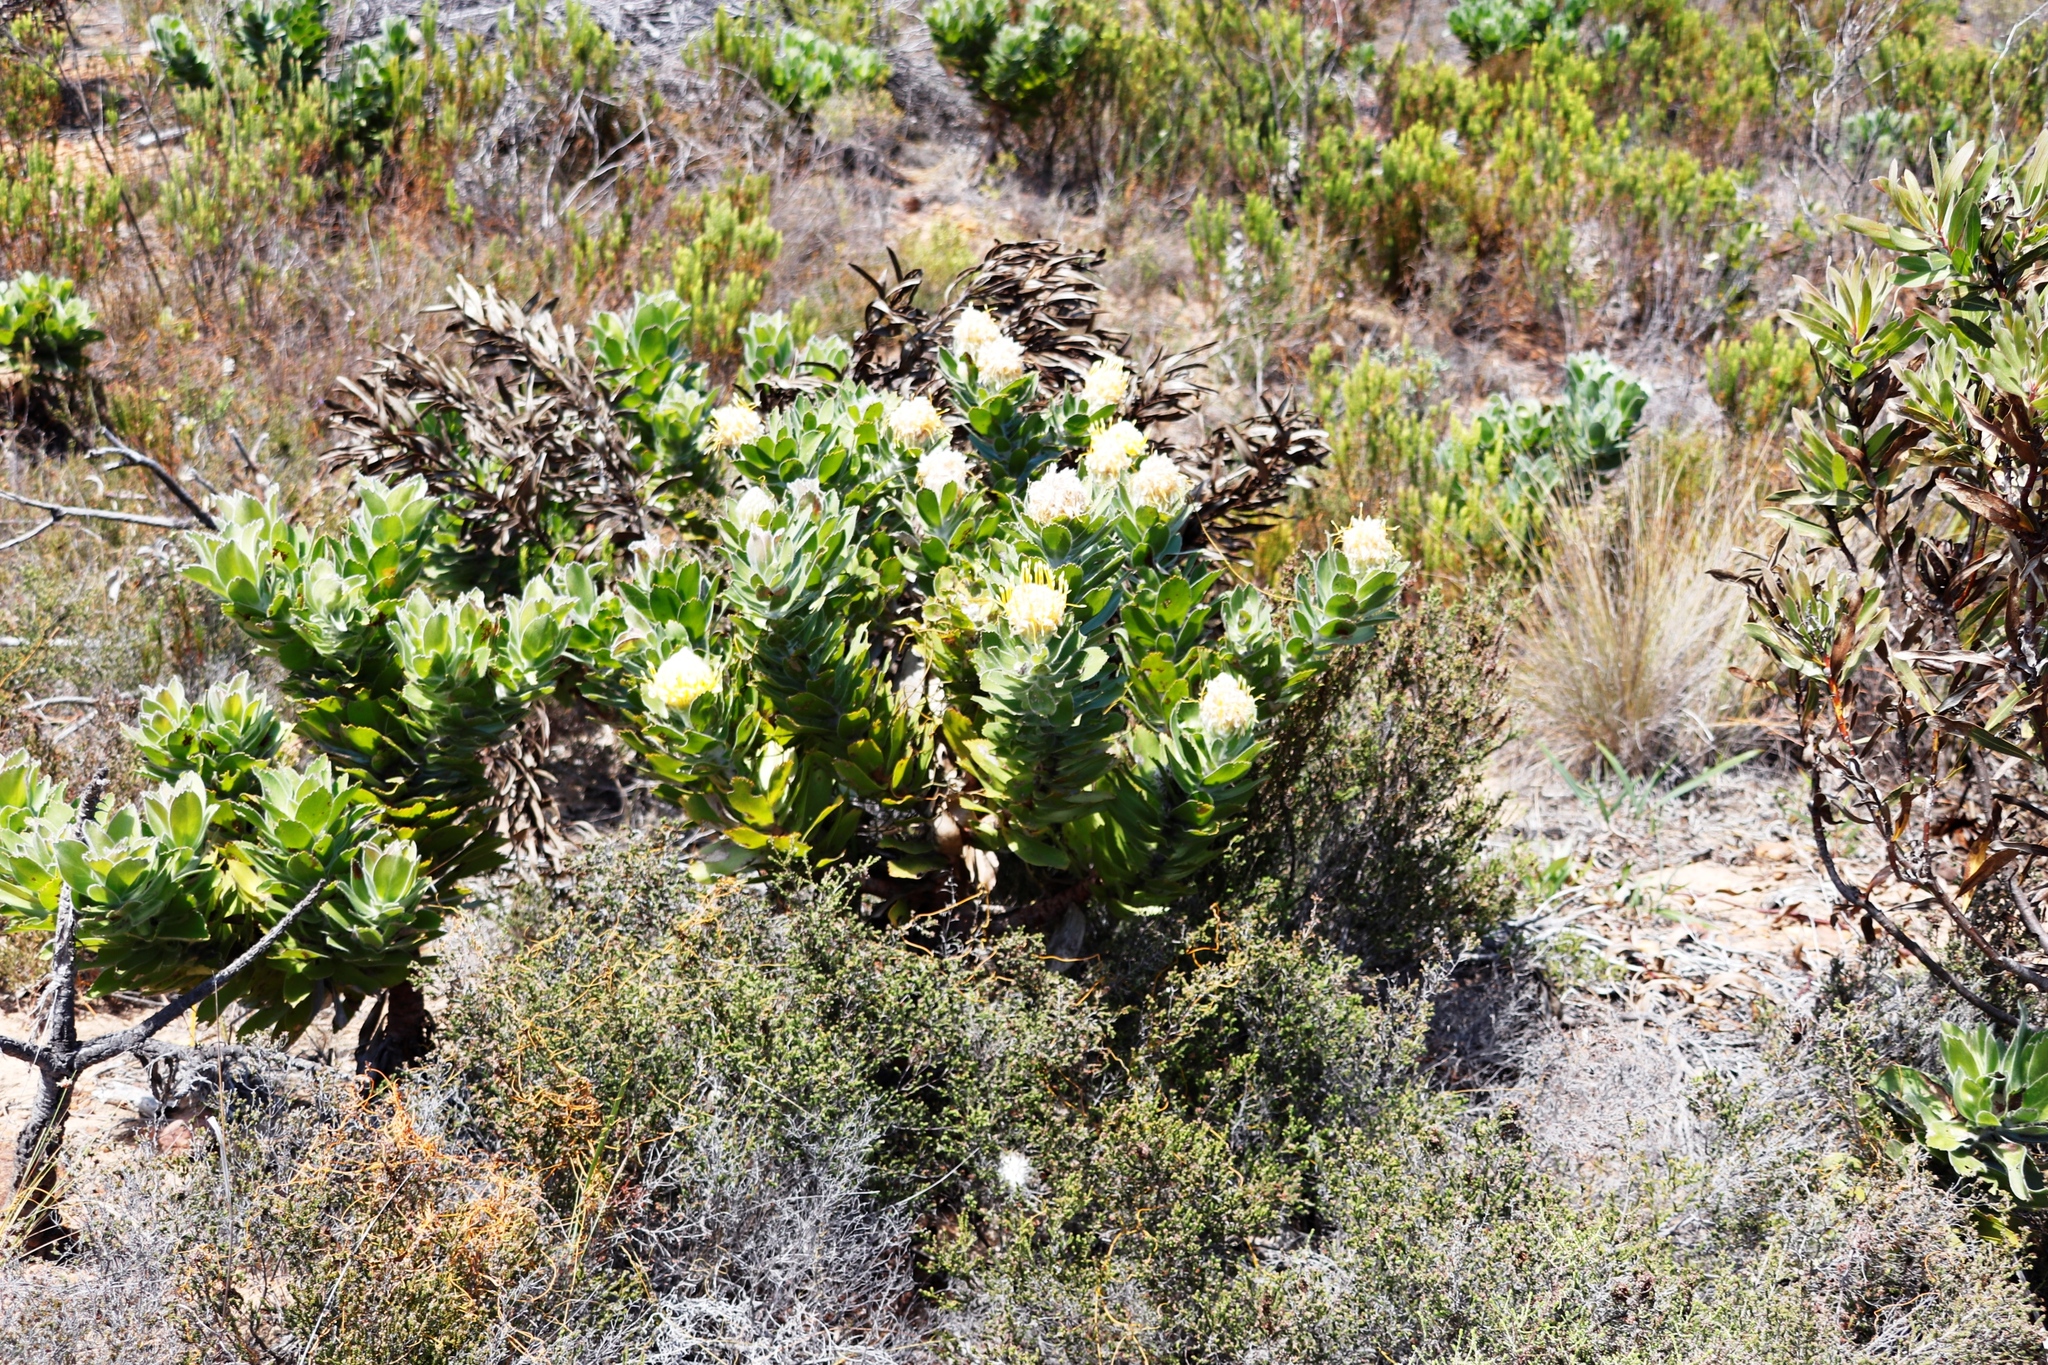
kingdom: Plantae
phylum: Tracheophyta
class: Magnoliopsida
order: Proteales
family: Proteaceae
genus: Leucospermum
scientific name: Leucospermum conocarpodendron
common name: Tree pincushion
